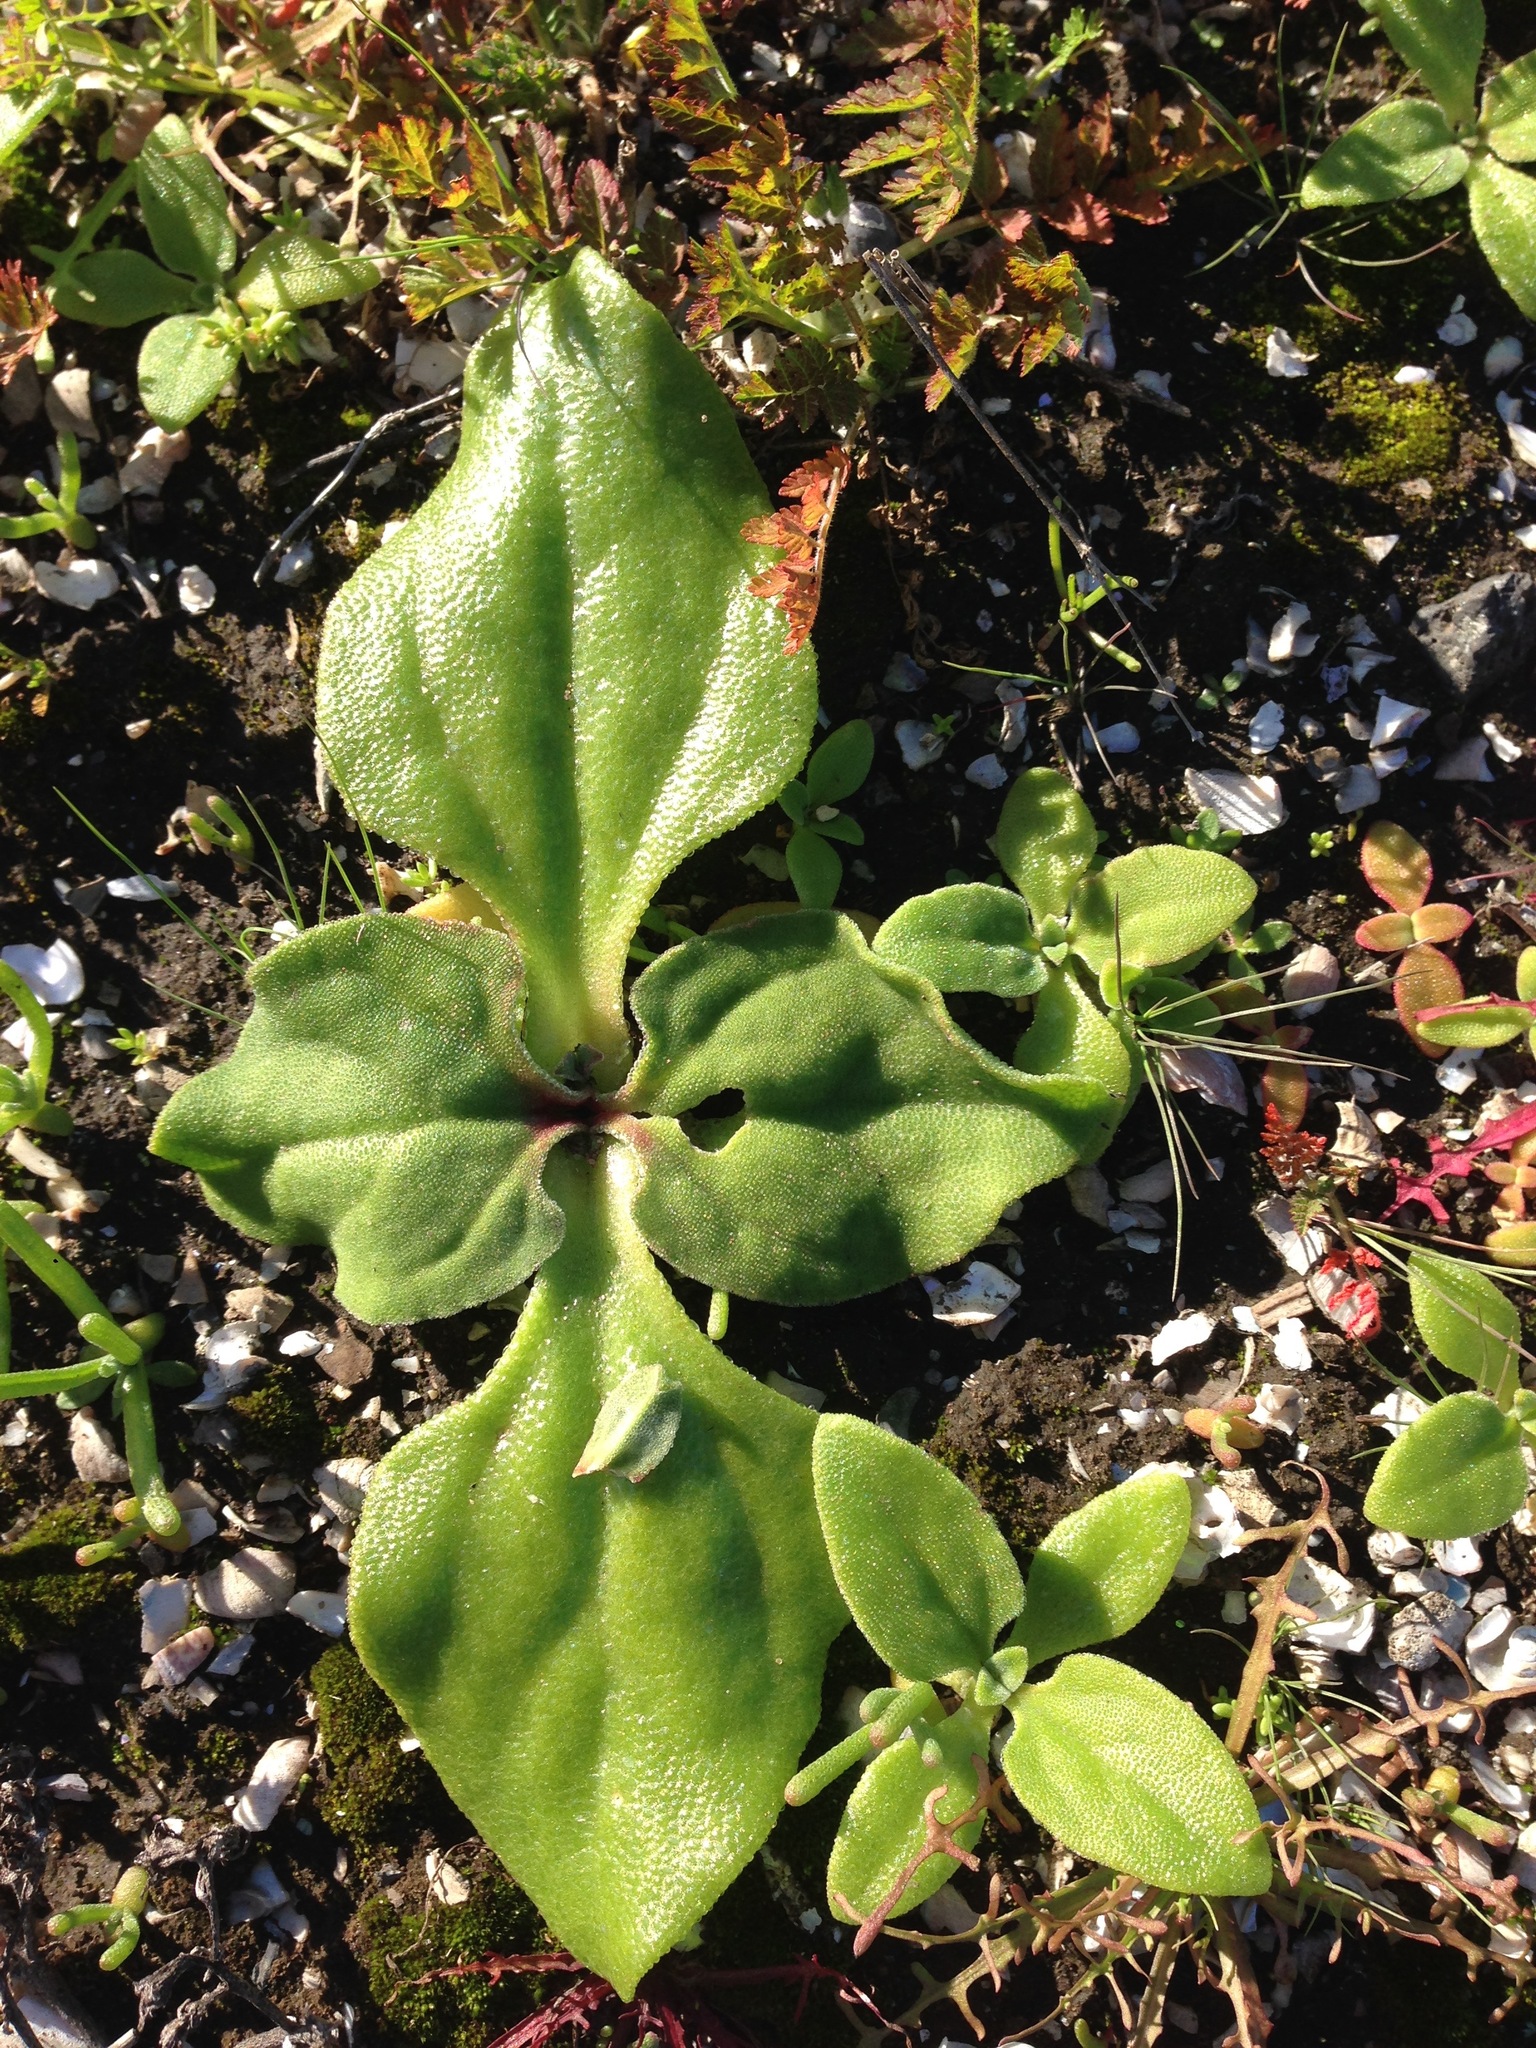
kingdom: Plantae
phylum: Tracheophyta
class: Magnoliopsida
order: Caryophyllales
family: Aizoaceae
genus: Mesembryanthemum
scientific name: Mesembryanthemum crystallinum
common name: Common iceplant
